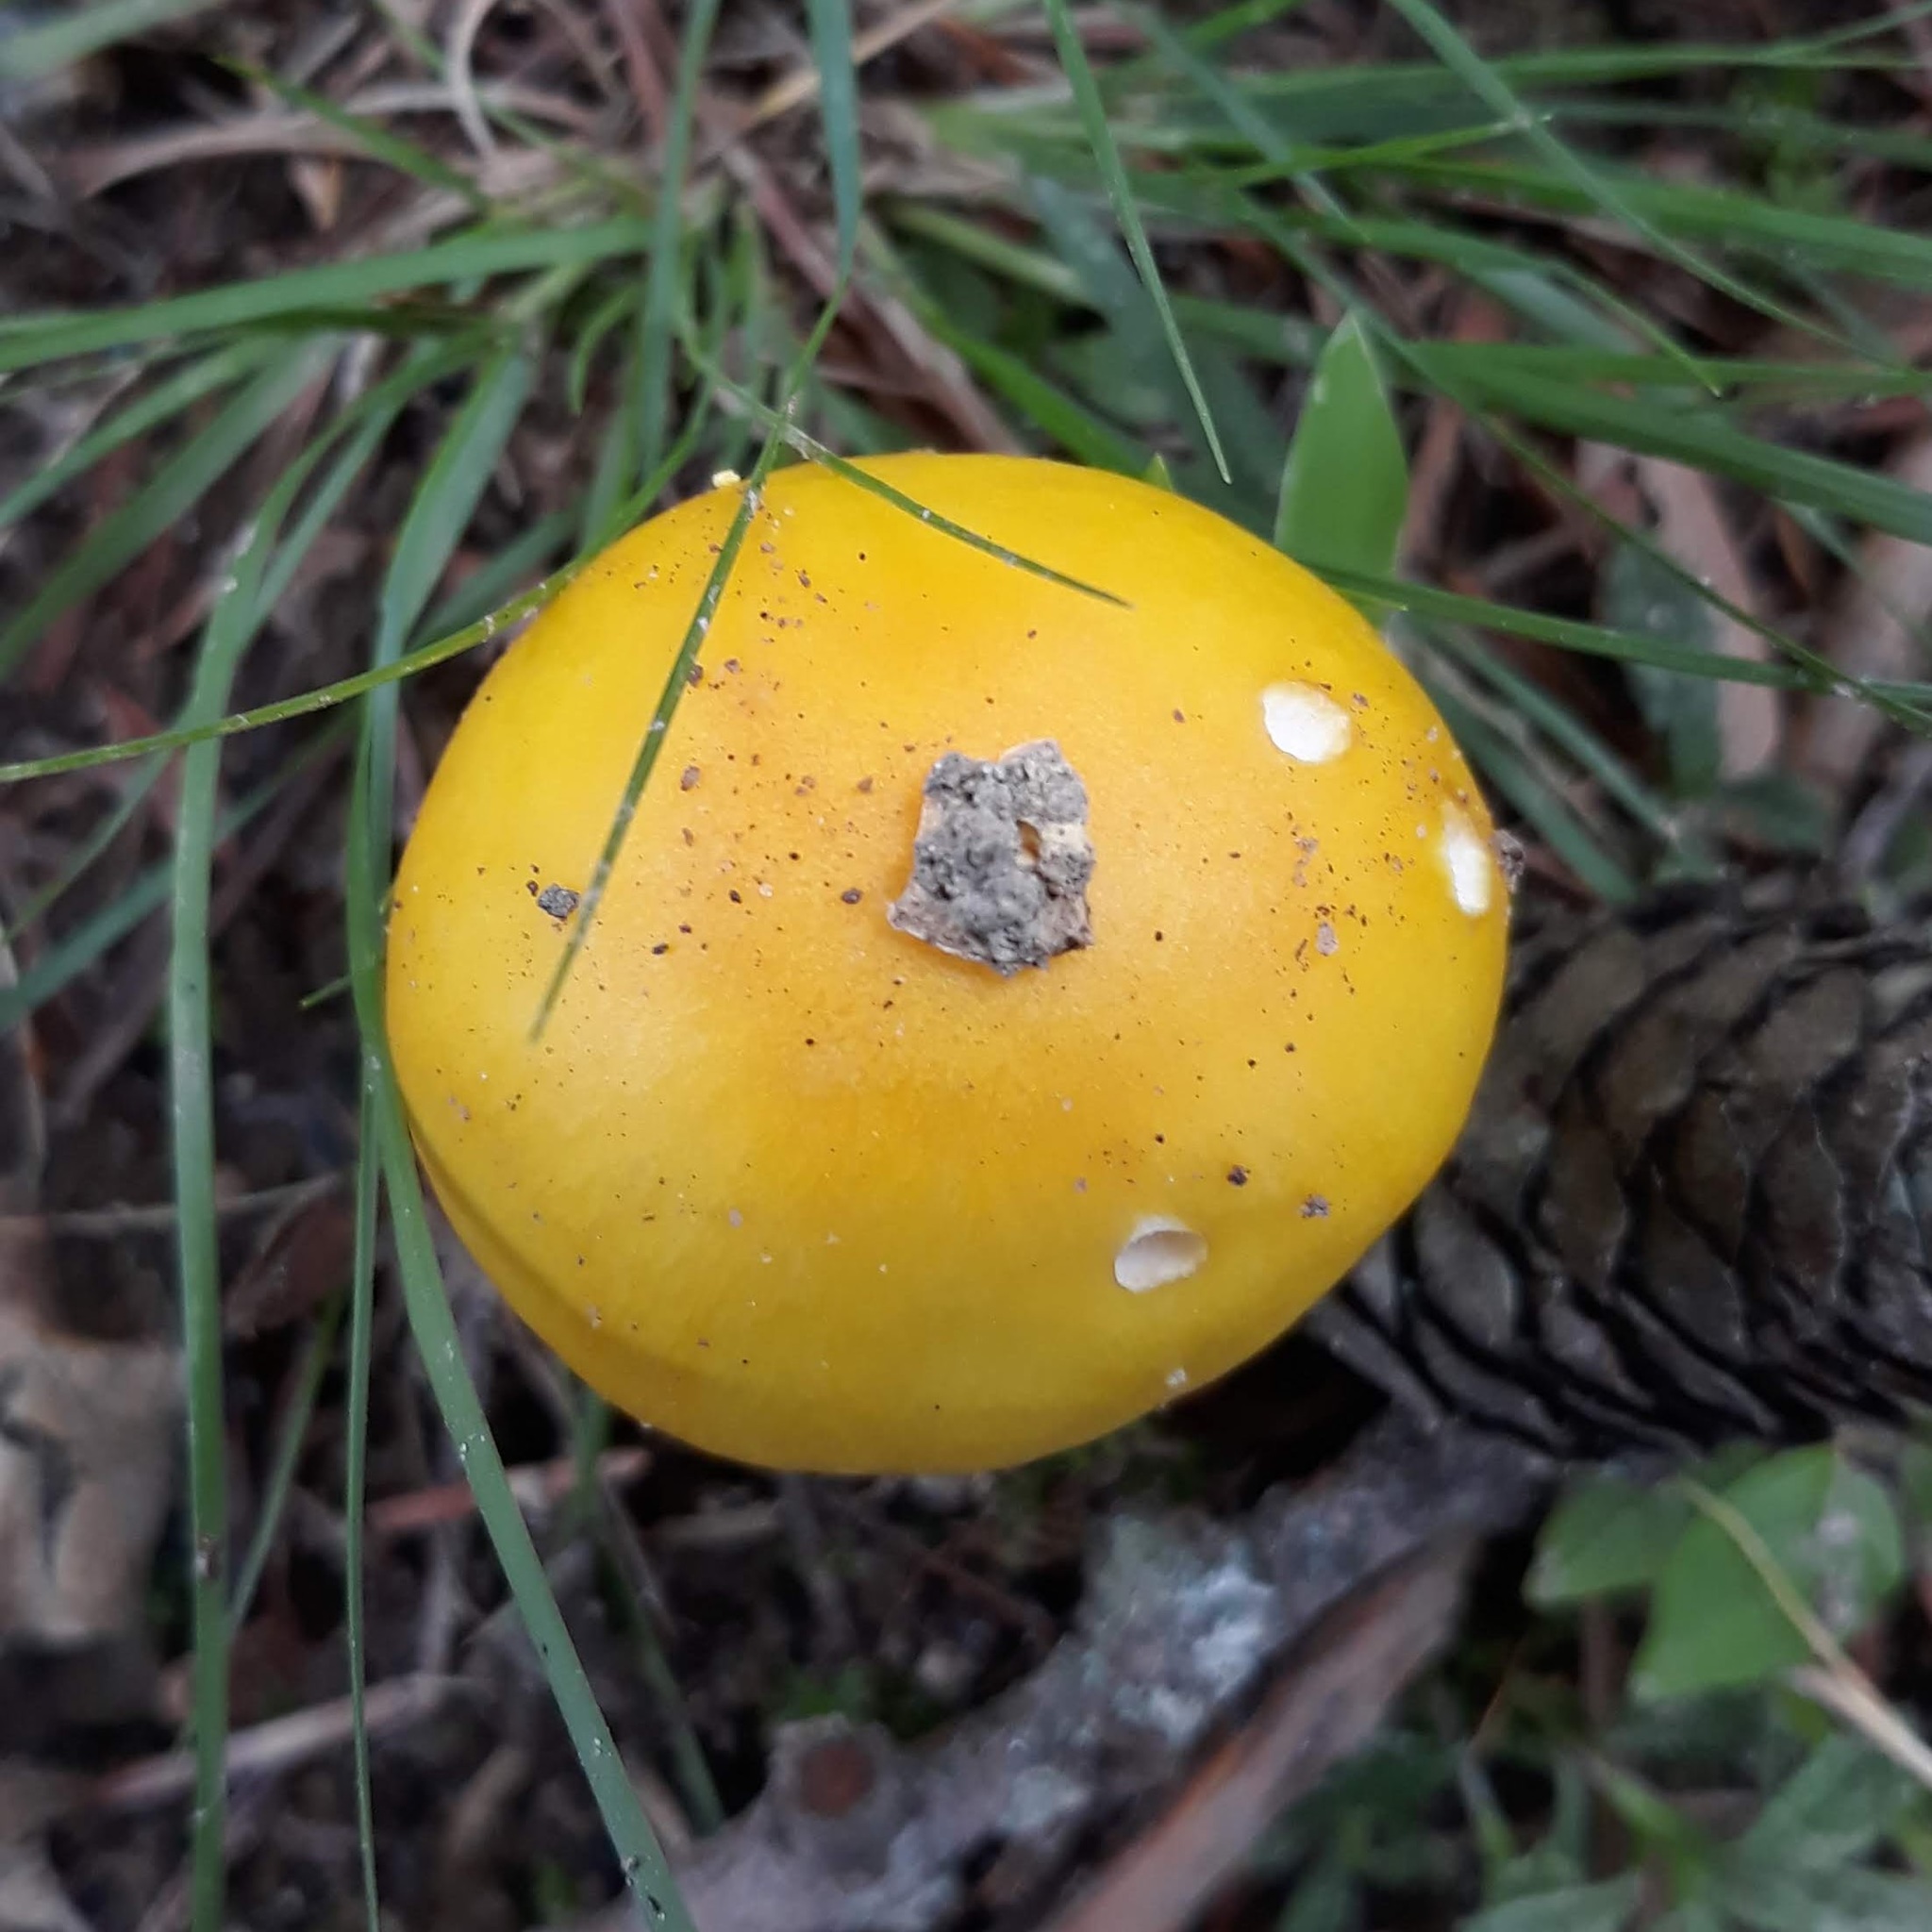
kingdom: Fungi
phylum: Basidiomycota
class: Agaricomycetes
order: Agaricales
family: Amanitaceae
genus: Amanita
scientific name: Amanita flavorubens
